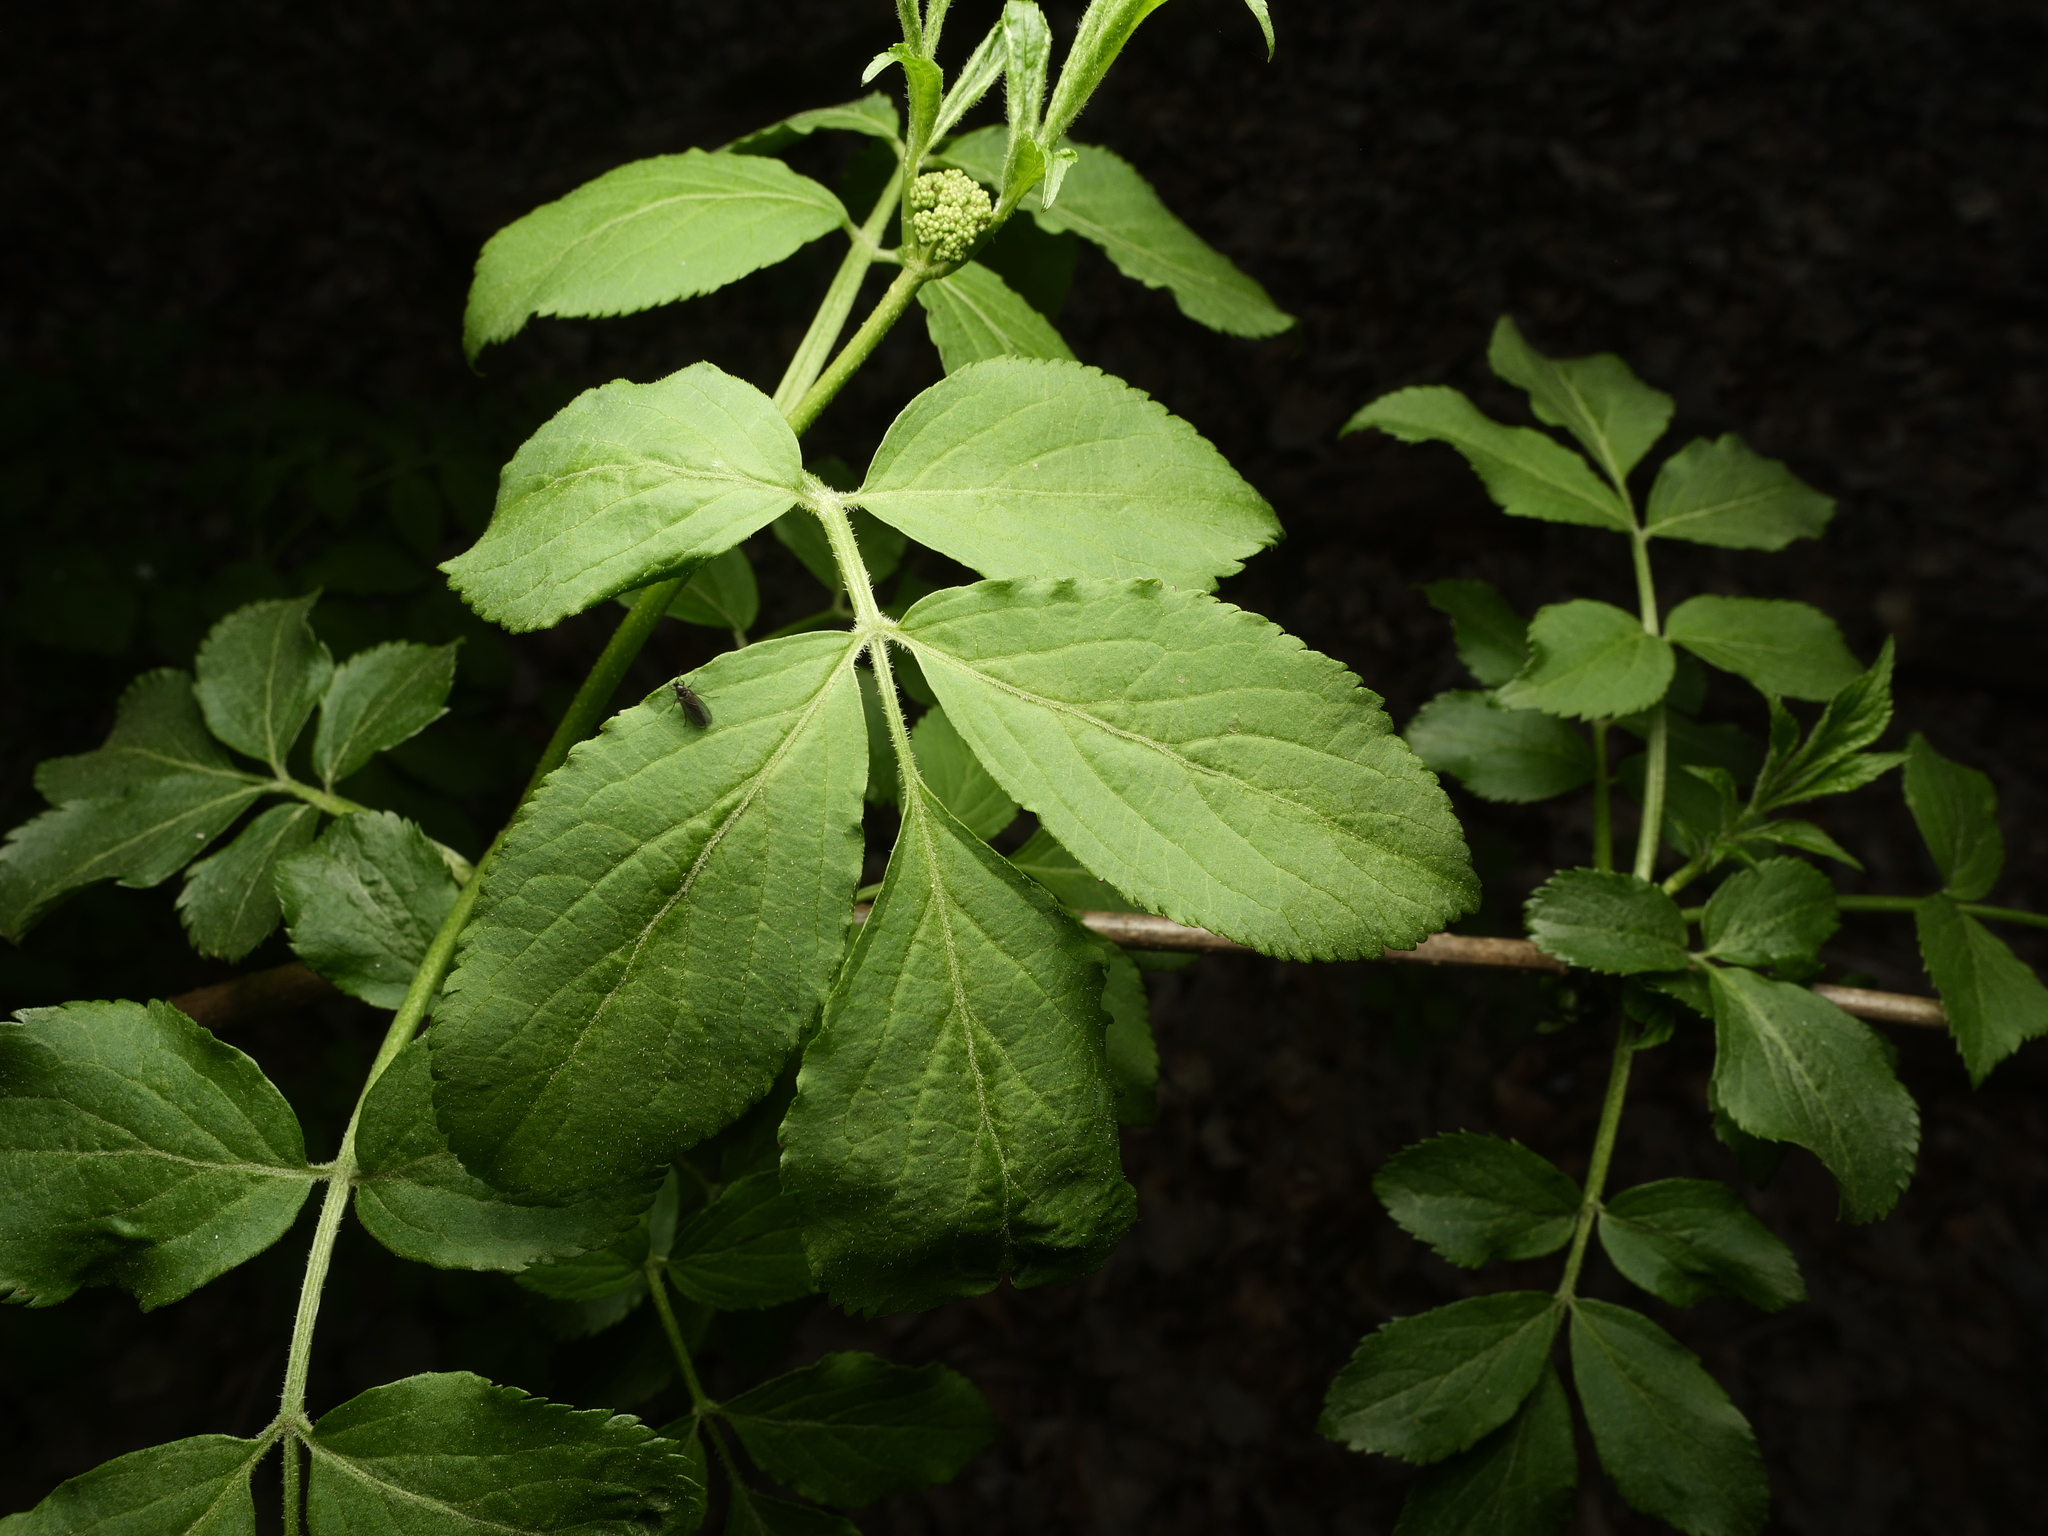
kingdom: Plantae
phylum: Tracheophyta
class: Magnoliopsida
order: Dipsacales
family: Viburnaceae
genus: Sambucus
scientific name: Sambucus nigra
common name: Elder
